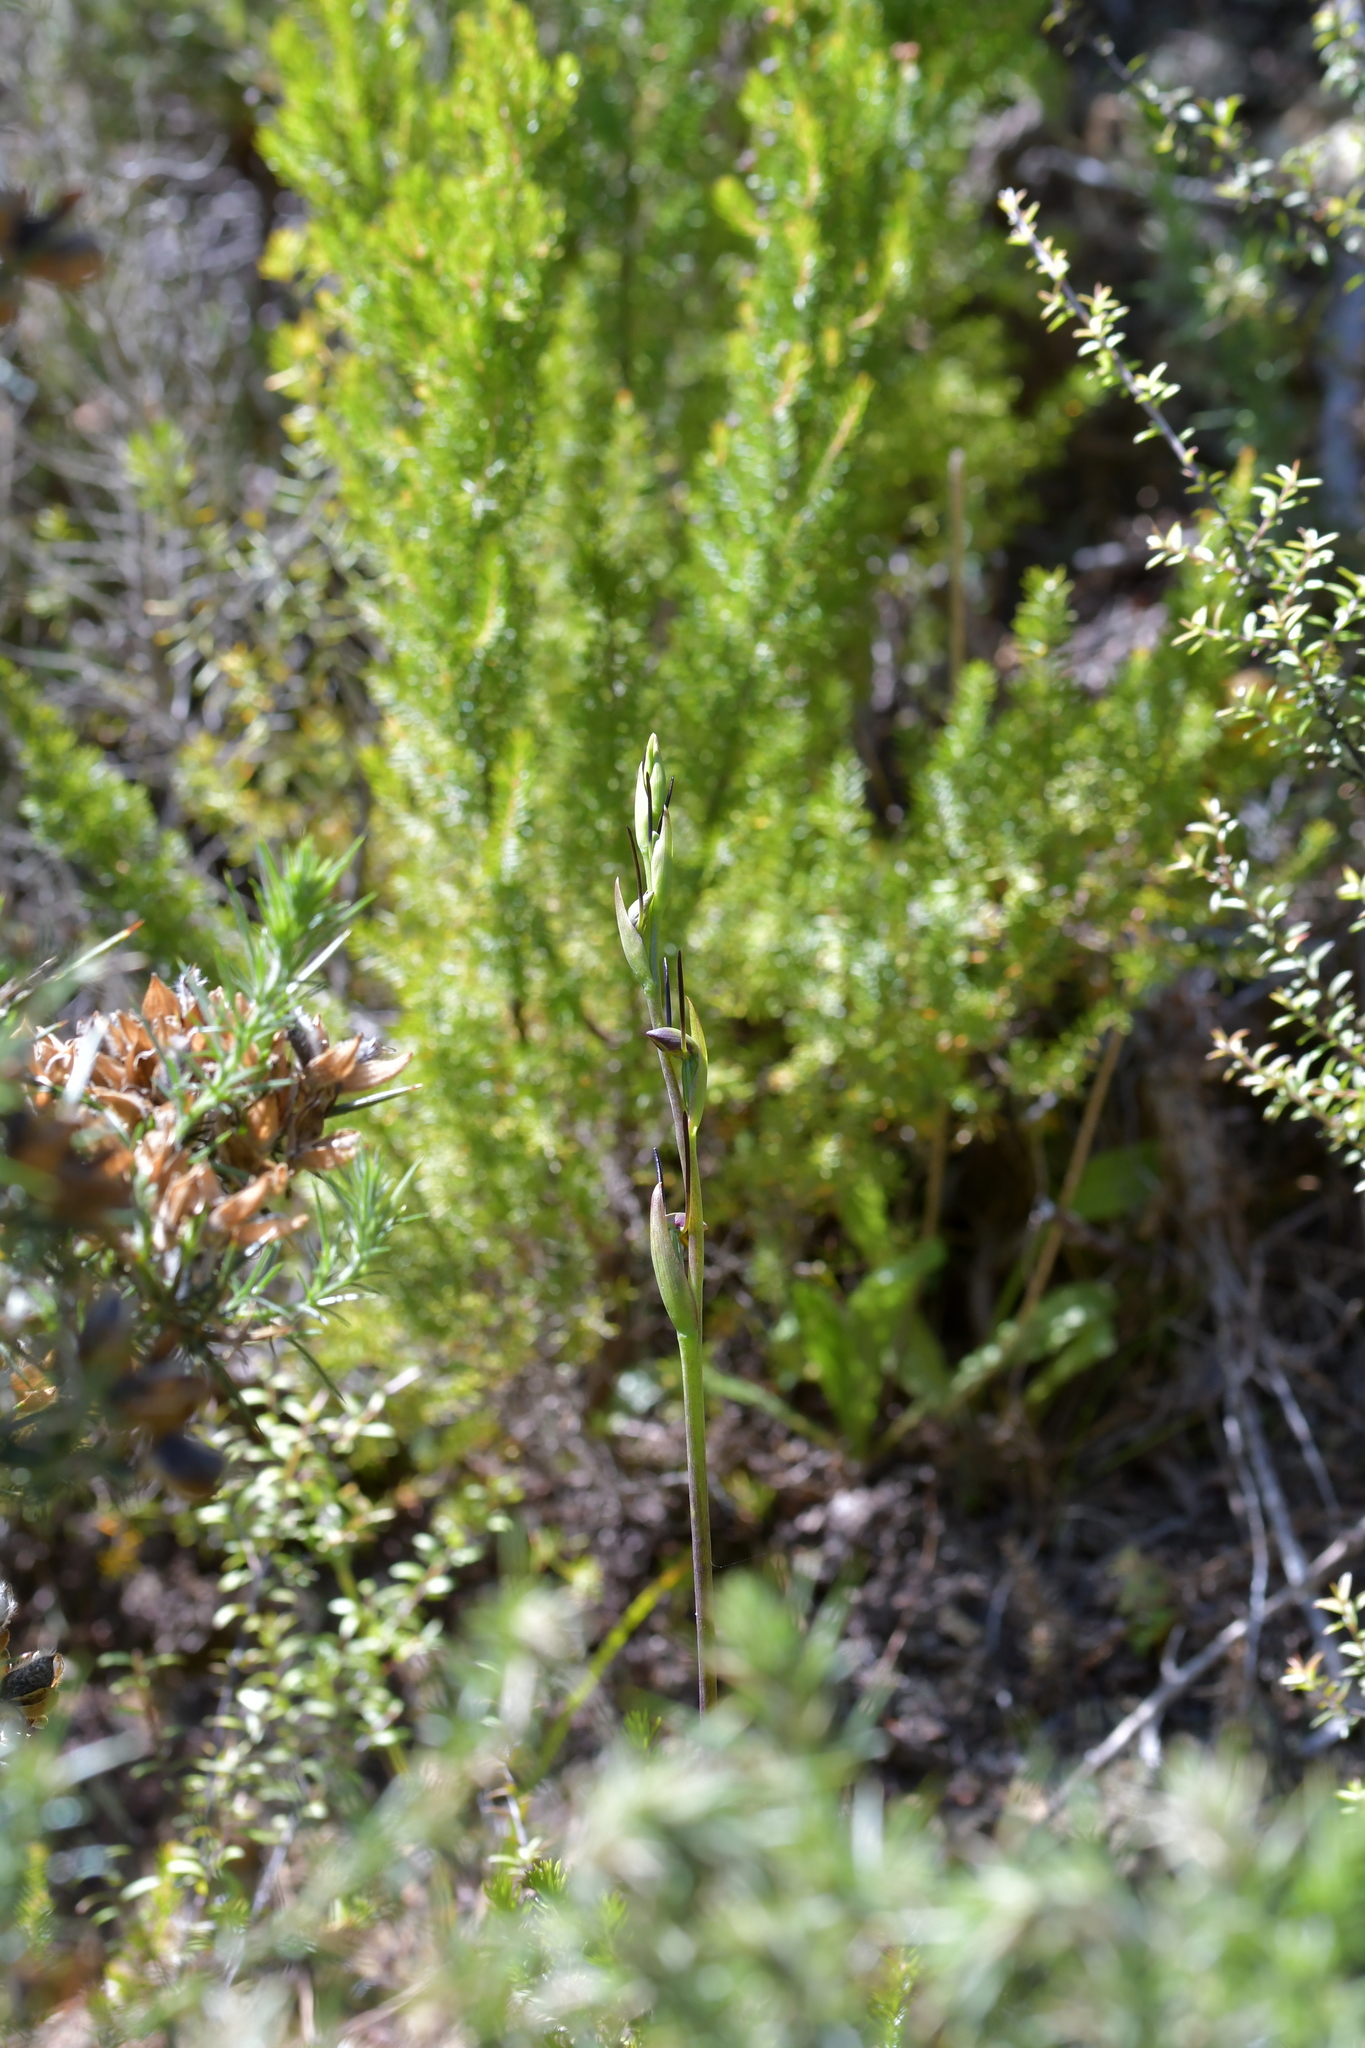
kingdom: Plantae
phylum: Tracheophyta
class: Liliopsida
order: Asparagales
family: Orchidaceae
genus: Orthoceras
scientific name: Orthoceras novae-zeelandiae
